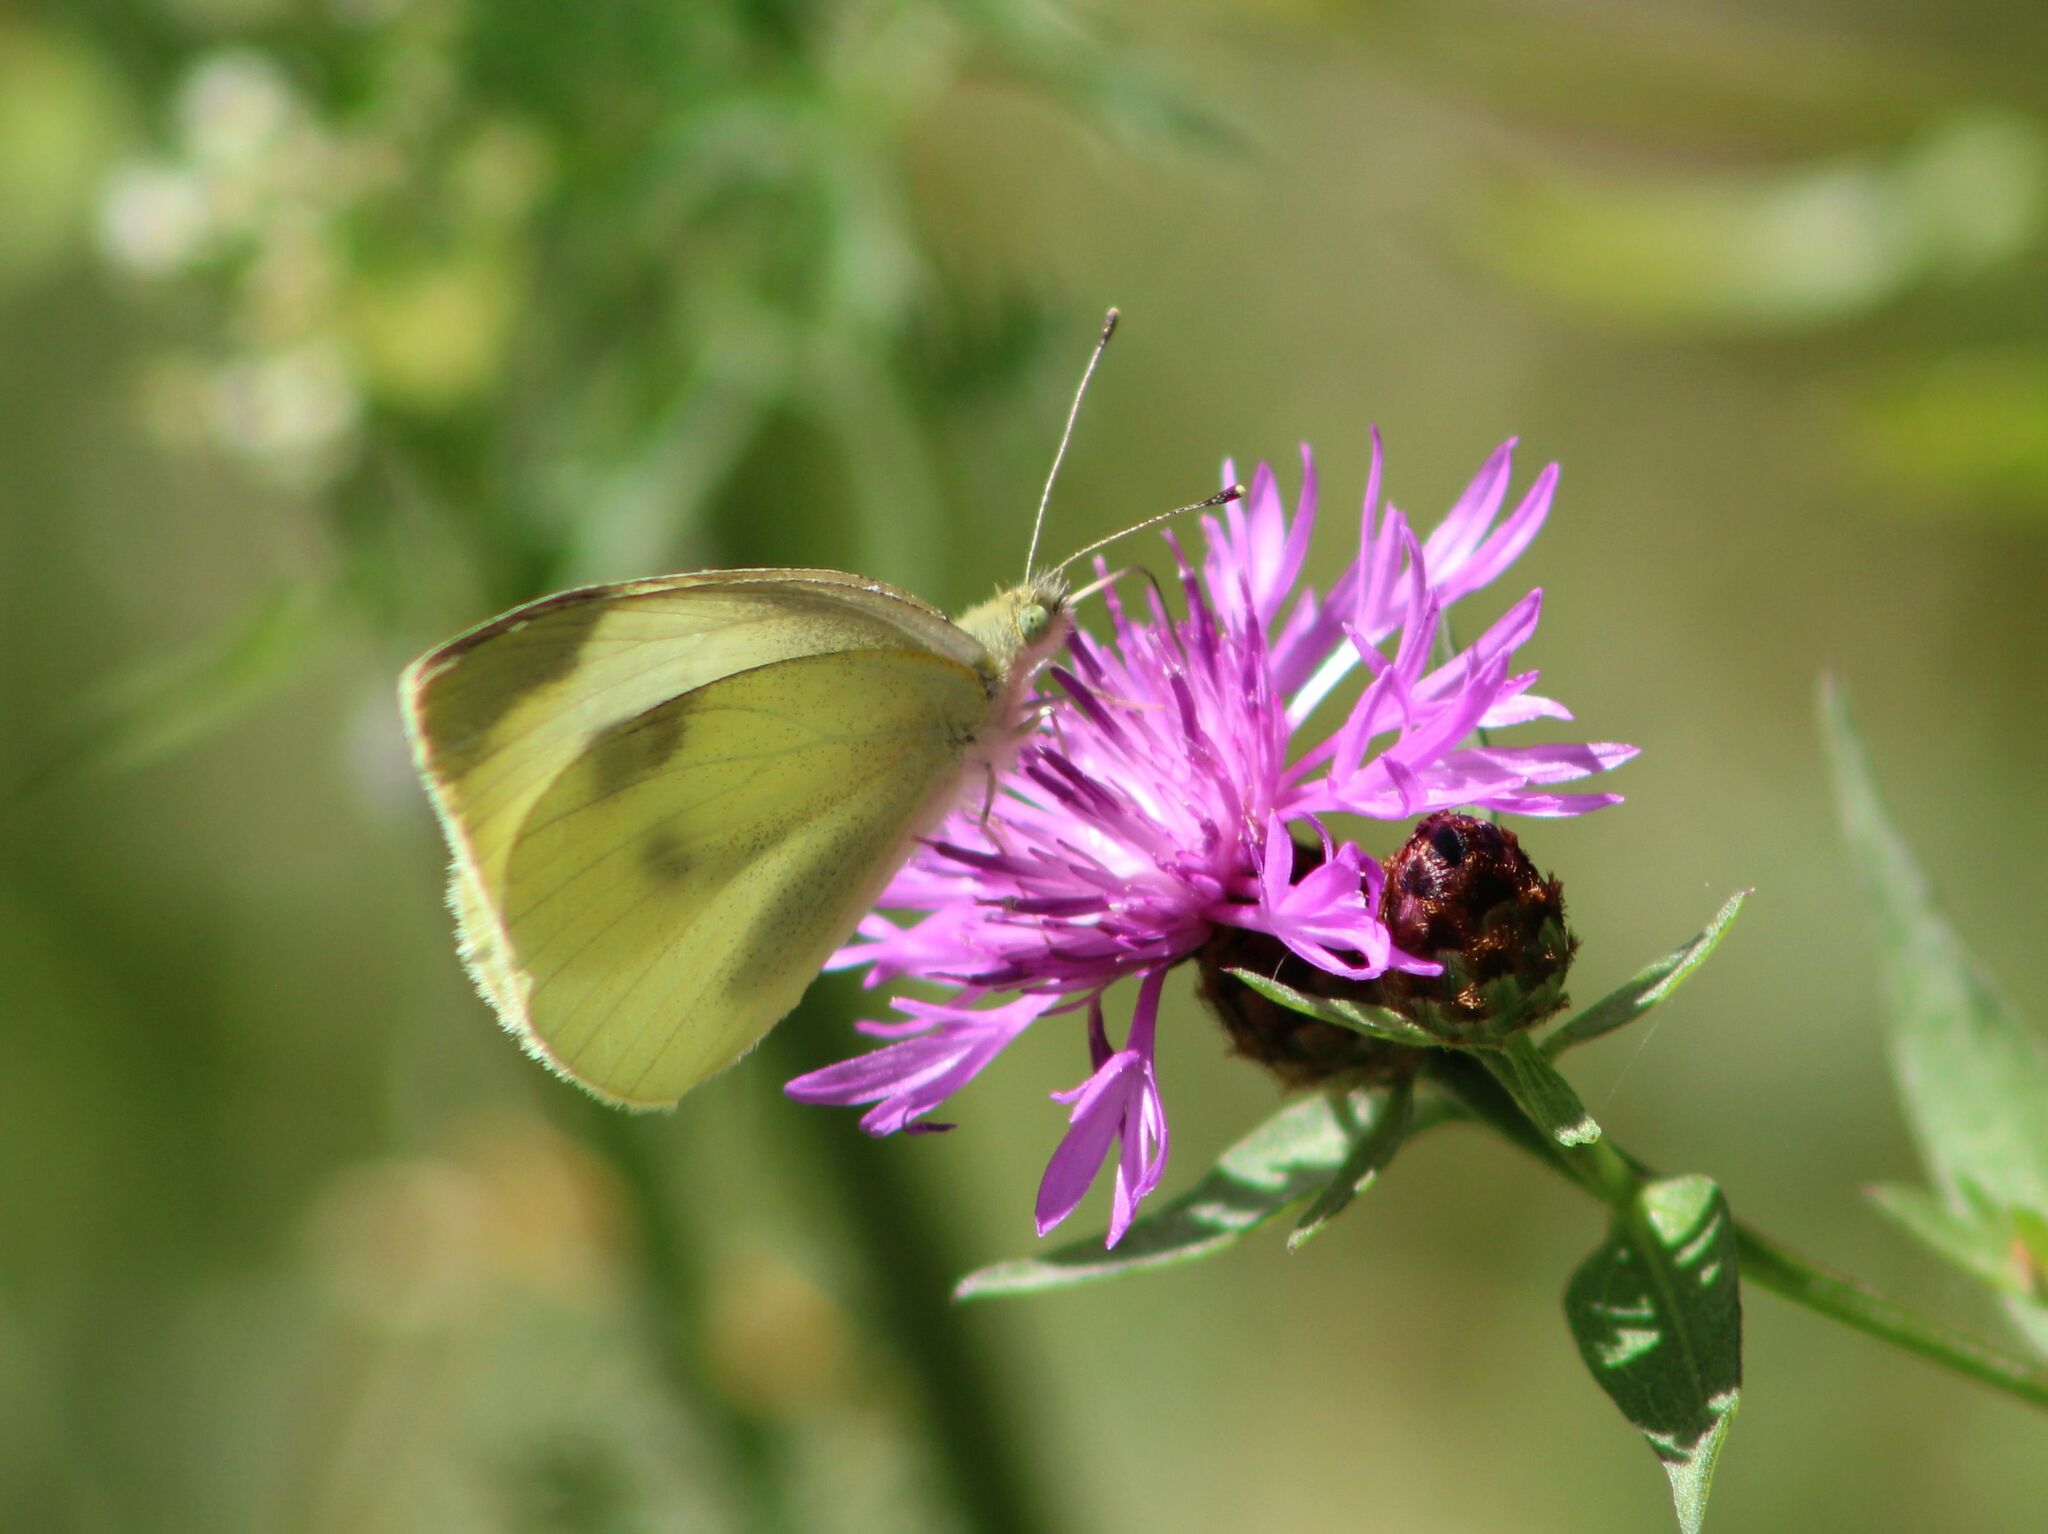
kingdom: Animalia
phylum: Arthropoda
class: Insecta
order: Lepidoptera
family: Pieridae
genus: Pieris
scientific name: Pieris rapae
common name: Small white
